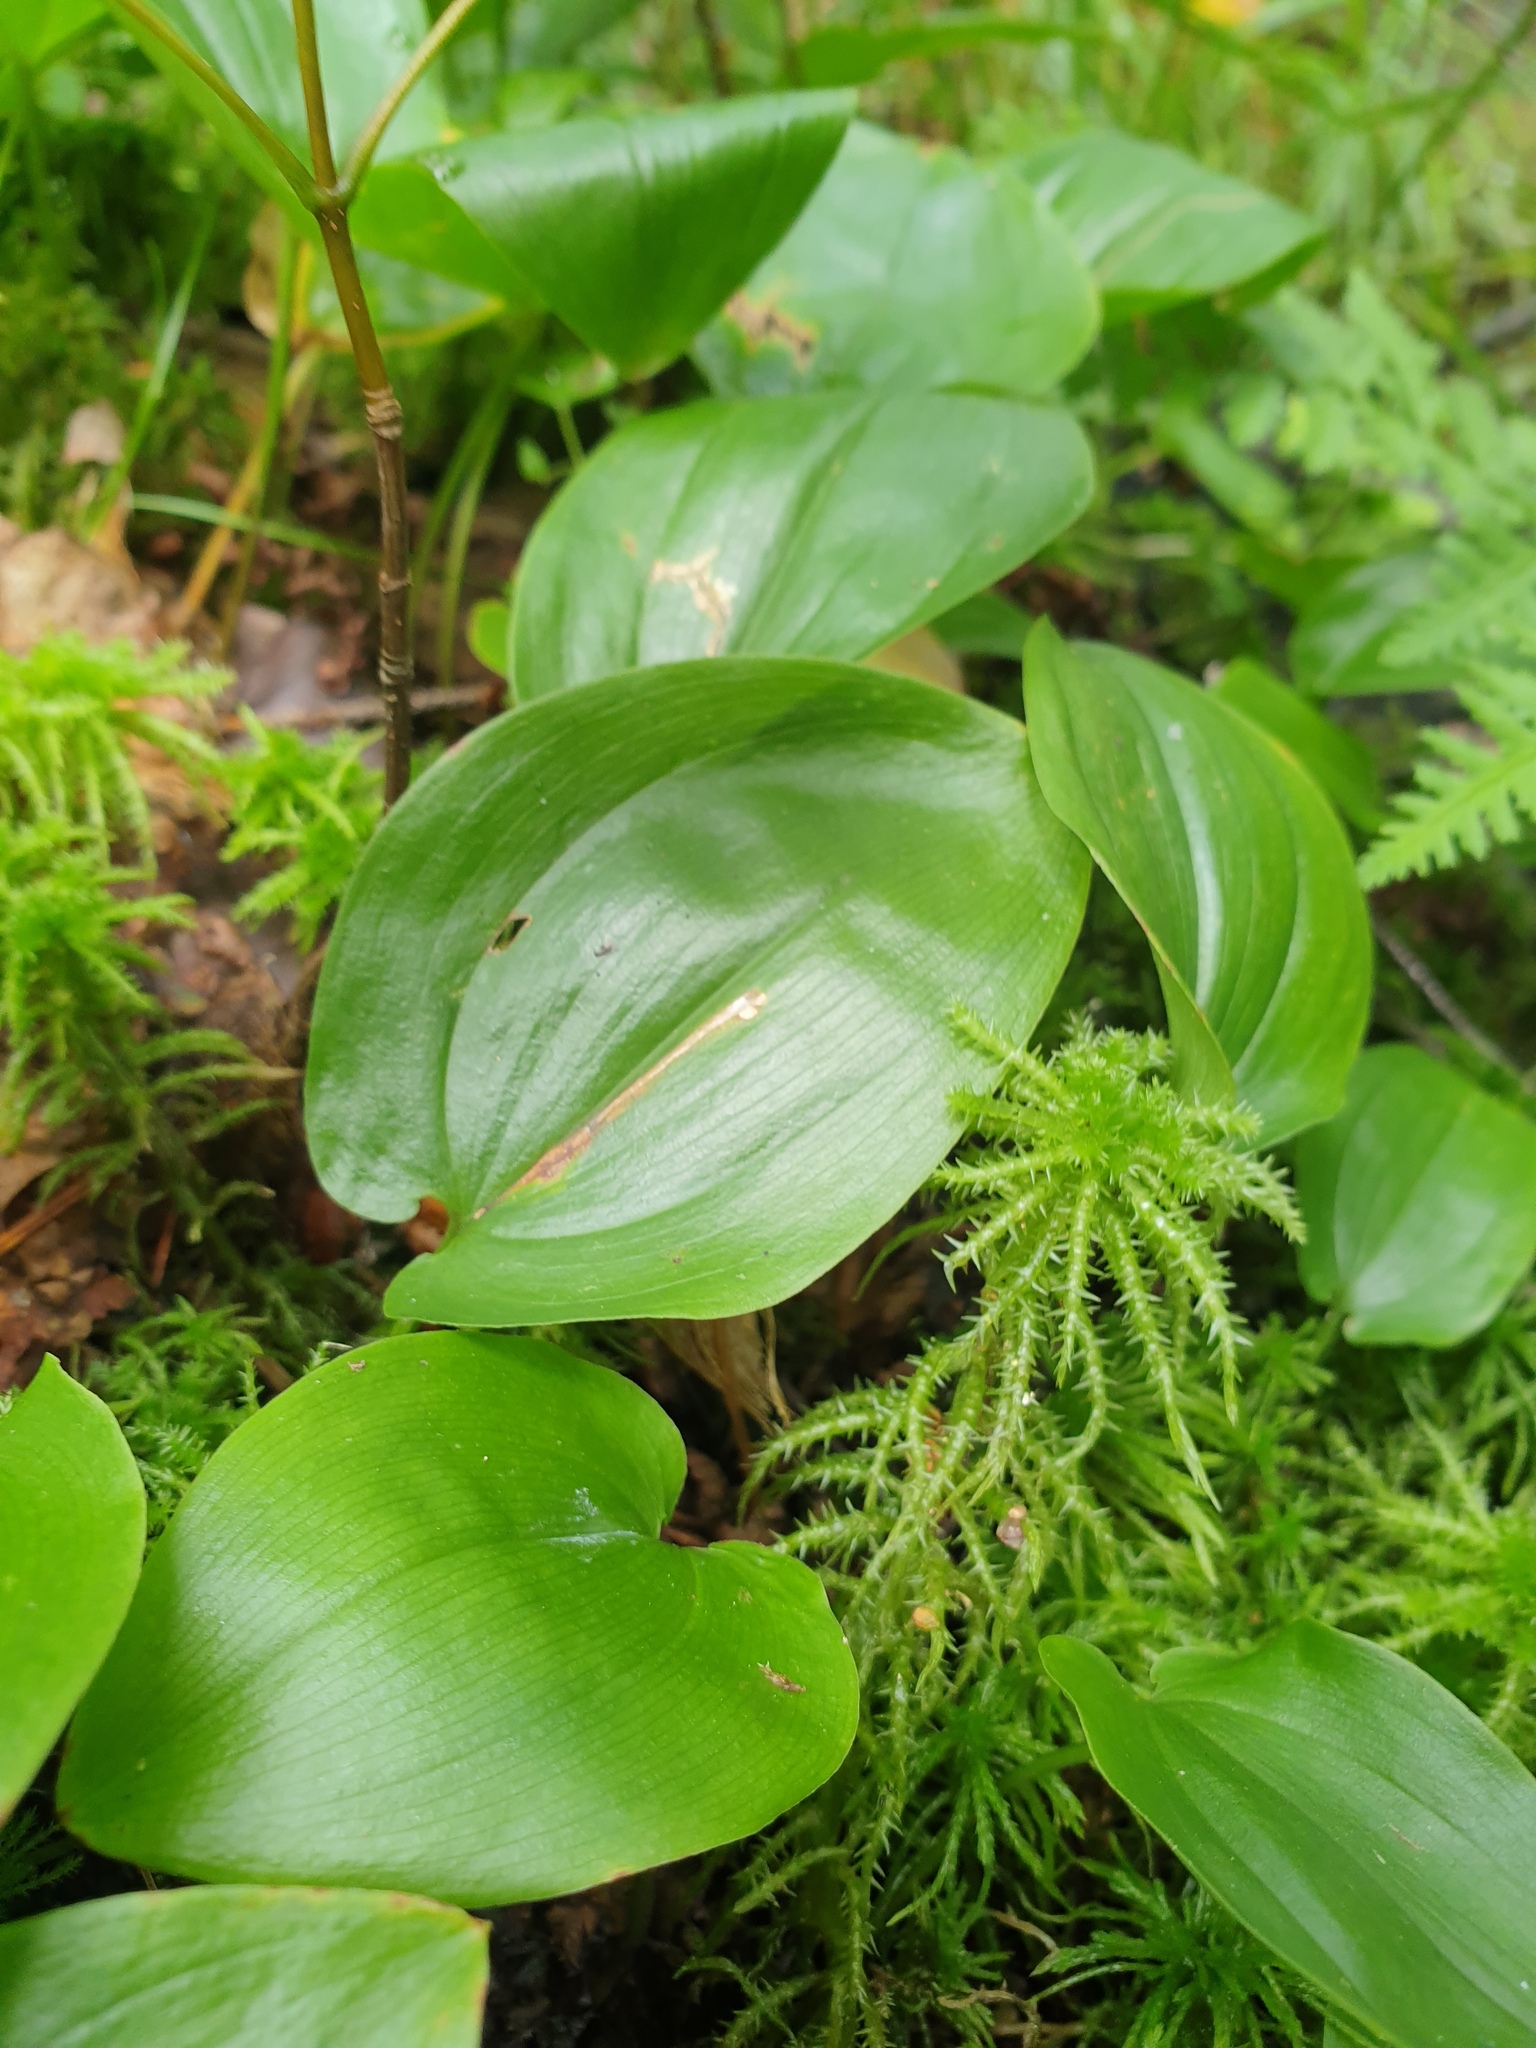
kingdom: Plantae
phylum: Bryophyta
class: Sphagnopsida
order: Sphagnales
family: Sphagnaceae
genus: Sphagnum
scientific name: Sphagnum squarrosum
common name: Shaggy peat moss
